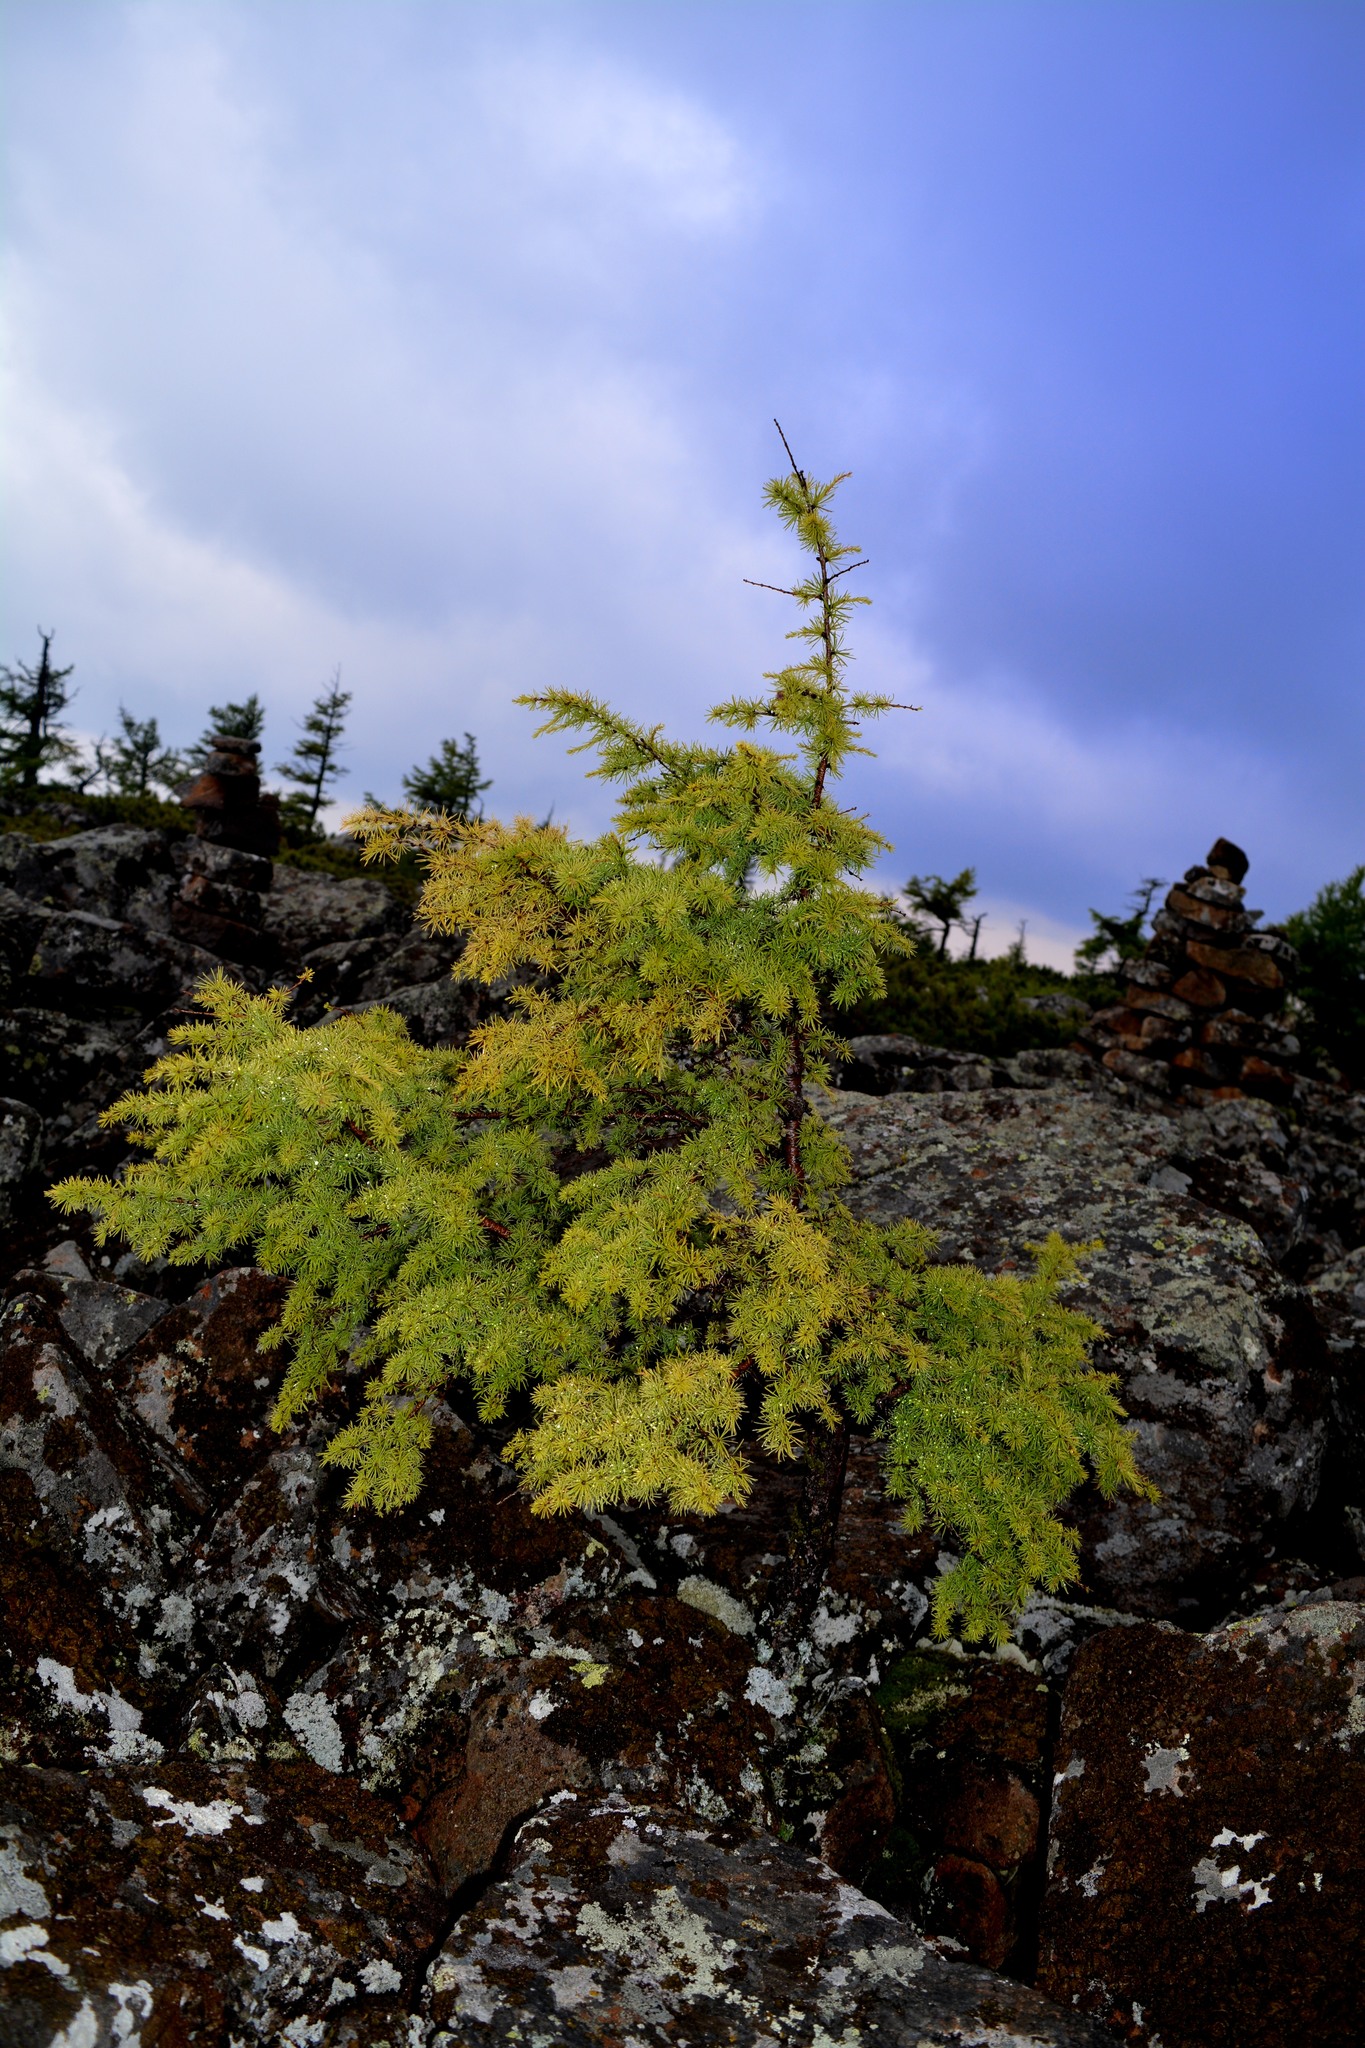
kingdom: Plantae
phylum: Tracheophyta
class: Pinopsida
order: Pinales
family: Pinaceae
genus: Larix
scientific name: Larix gmelinii
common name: Dahurian larch
